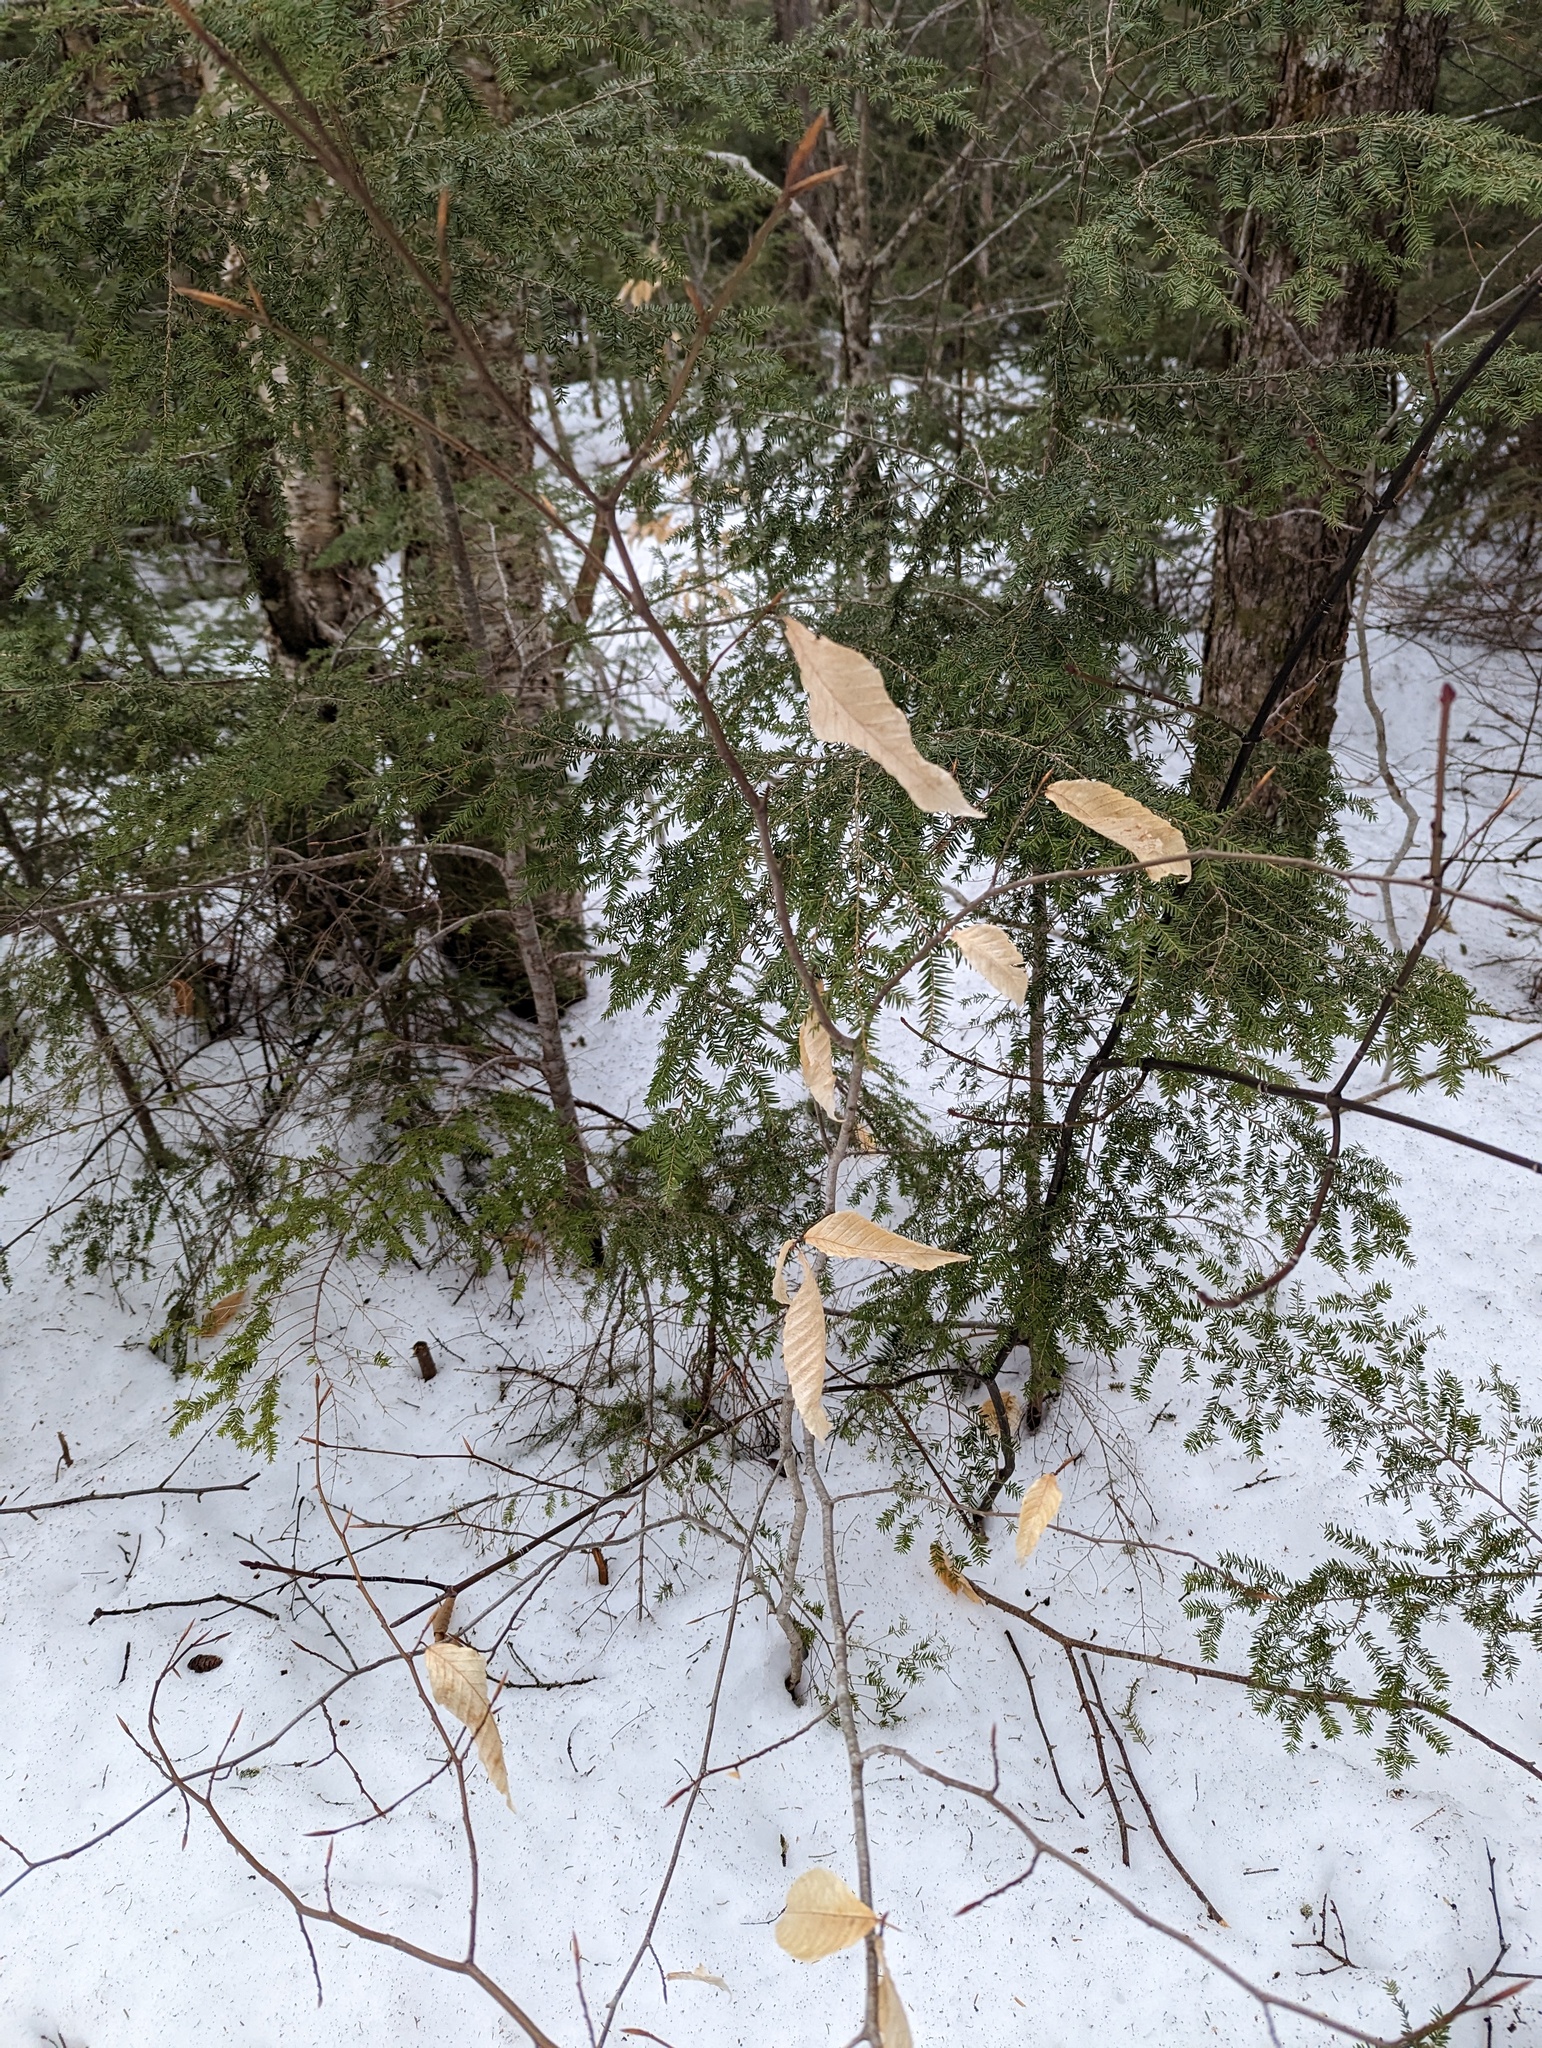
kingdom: Plantae
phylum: Tracheophyta
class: Magnoliopsida
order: Fagales
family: Fagaceae
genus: Fagus
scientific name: Fagus grandifolia
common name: American beech
